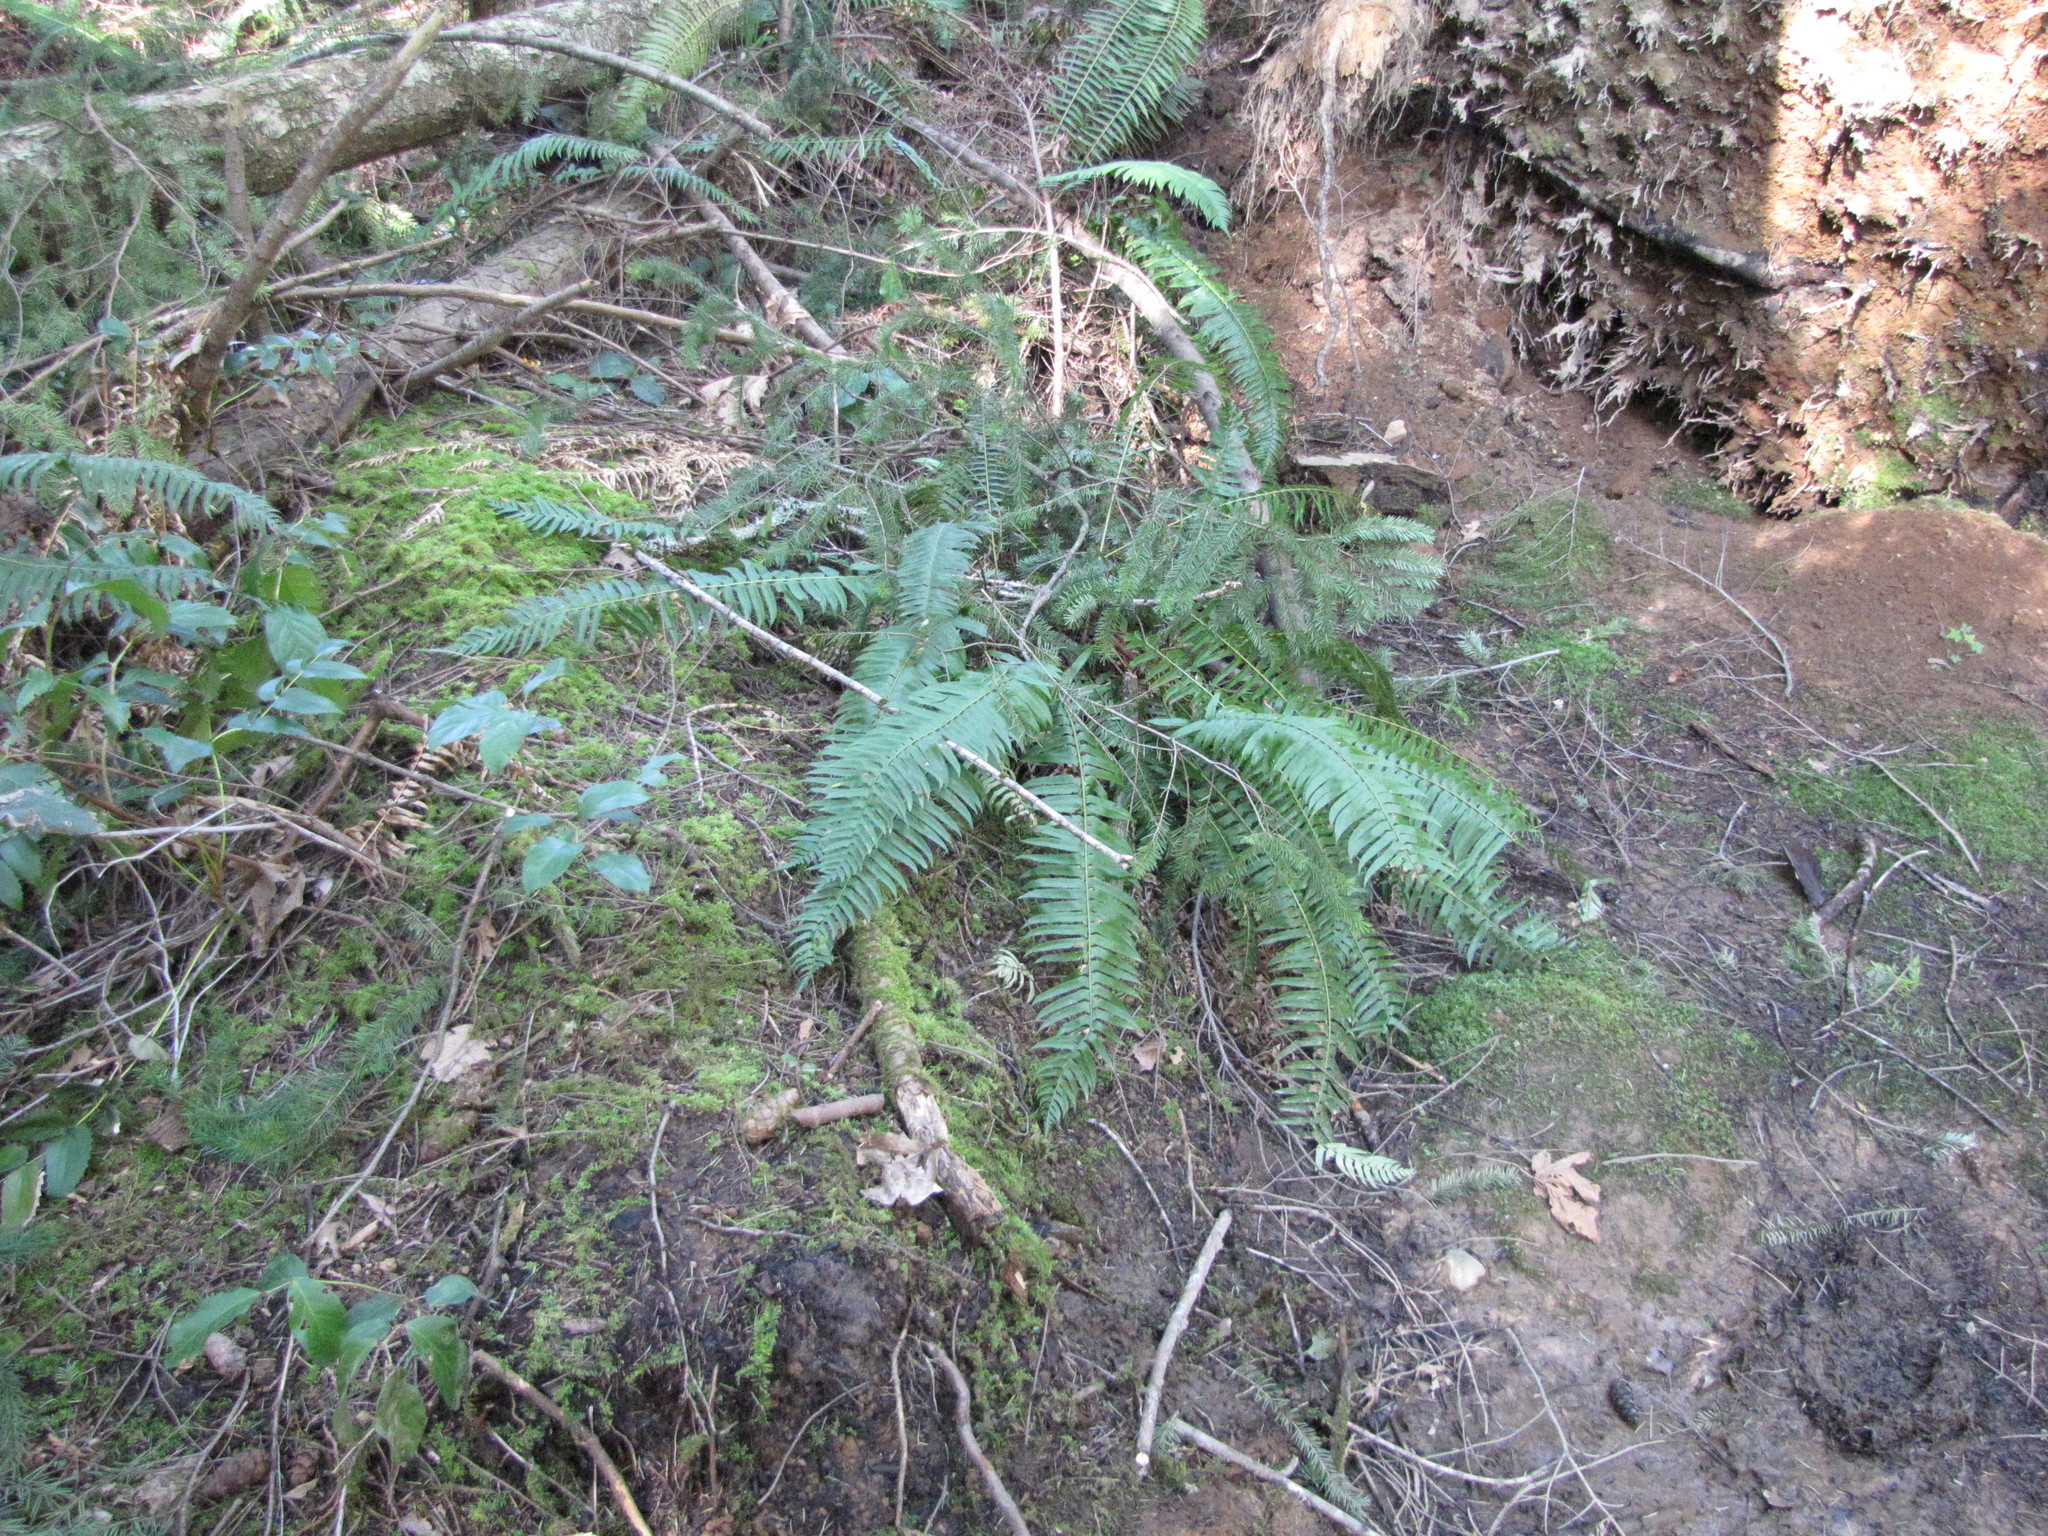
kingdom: Plantae
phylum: Tracheophyta
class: Polypodiopsida
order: Polypodiales
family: Dryopteridaceae
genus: Polystichum
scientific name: Polystichum munitum
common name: Western sword-fern
